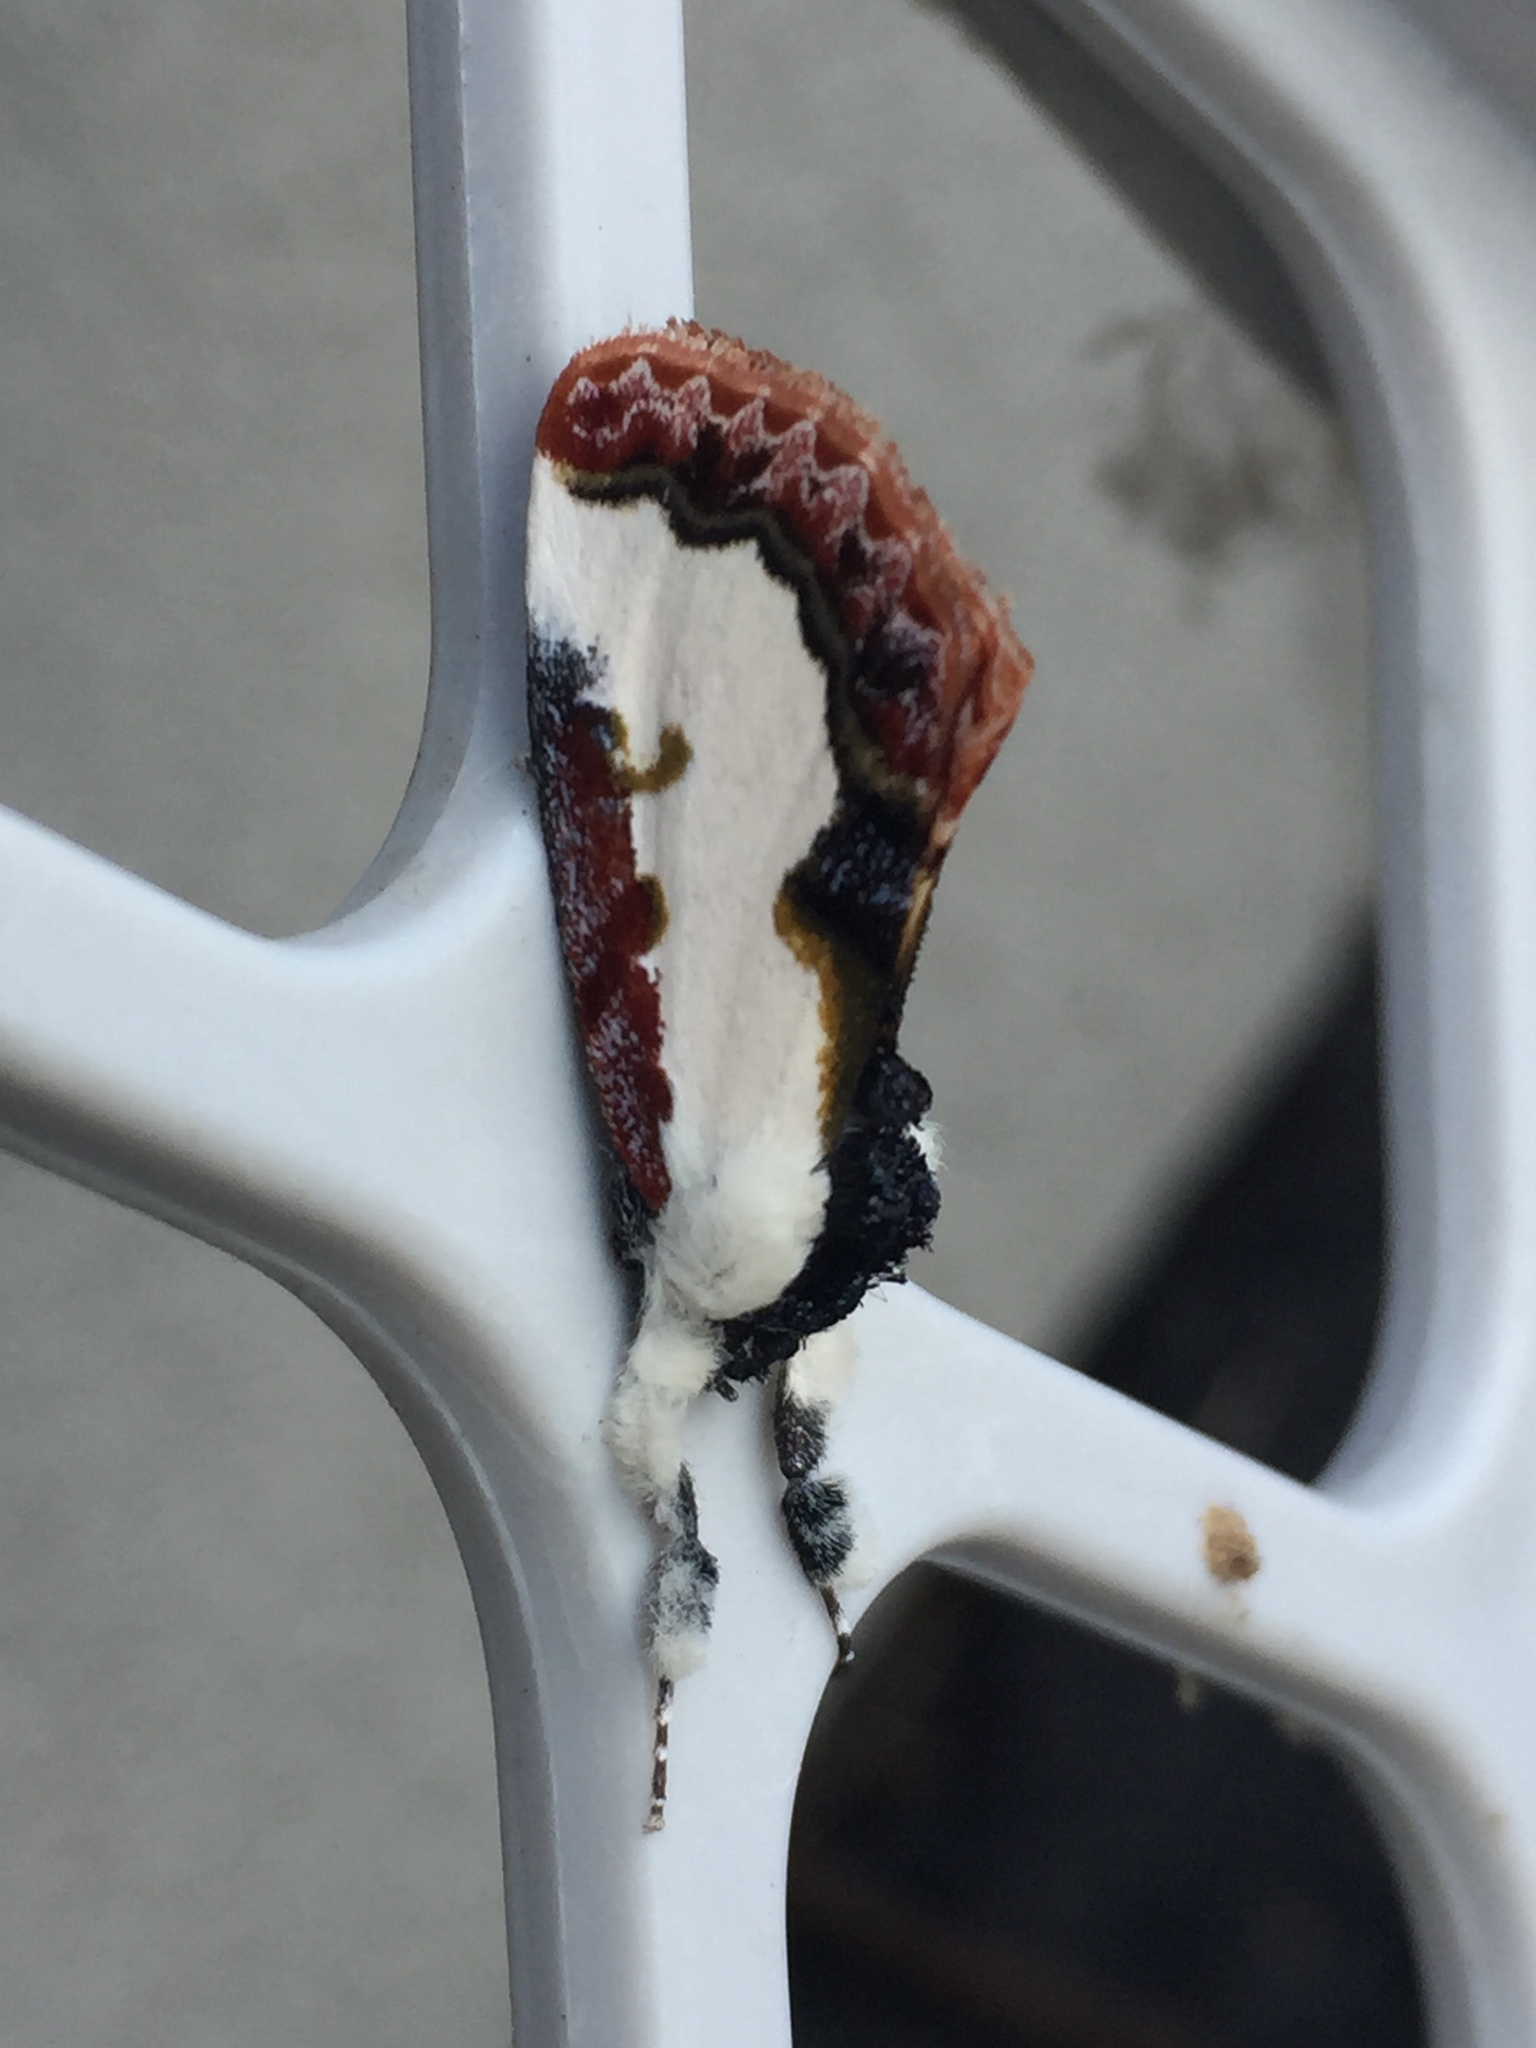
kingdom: Animalia
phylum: Arthropoda
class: Insecta
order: Lepidoptera
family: Noctuidae
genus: Eudryas
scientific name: Eudryas unio
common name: Pearly wood-nymph
